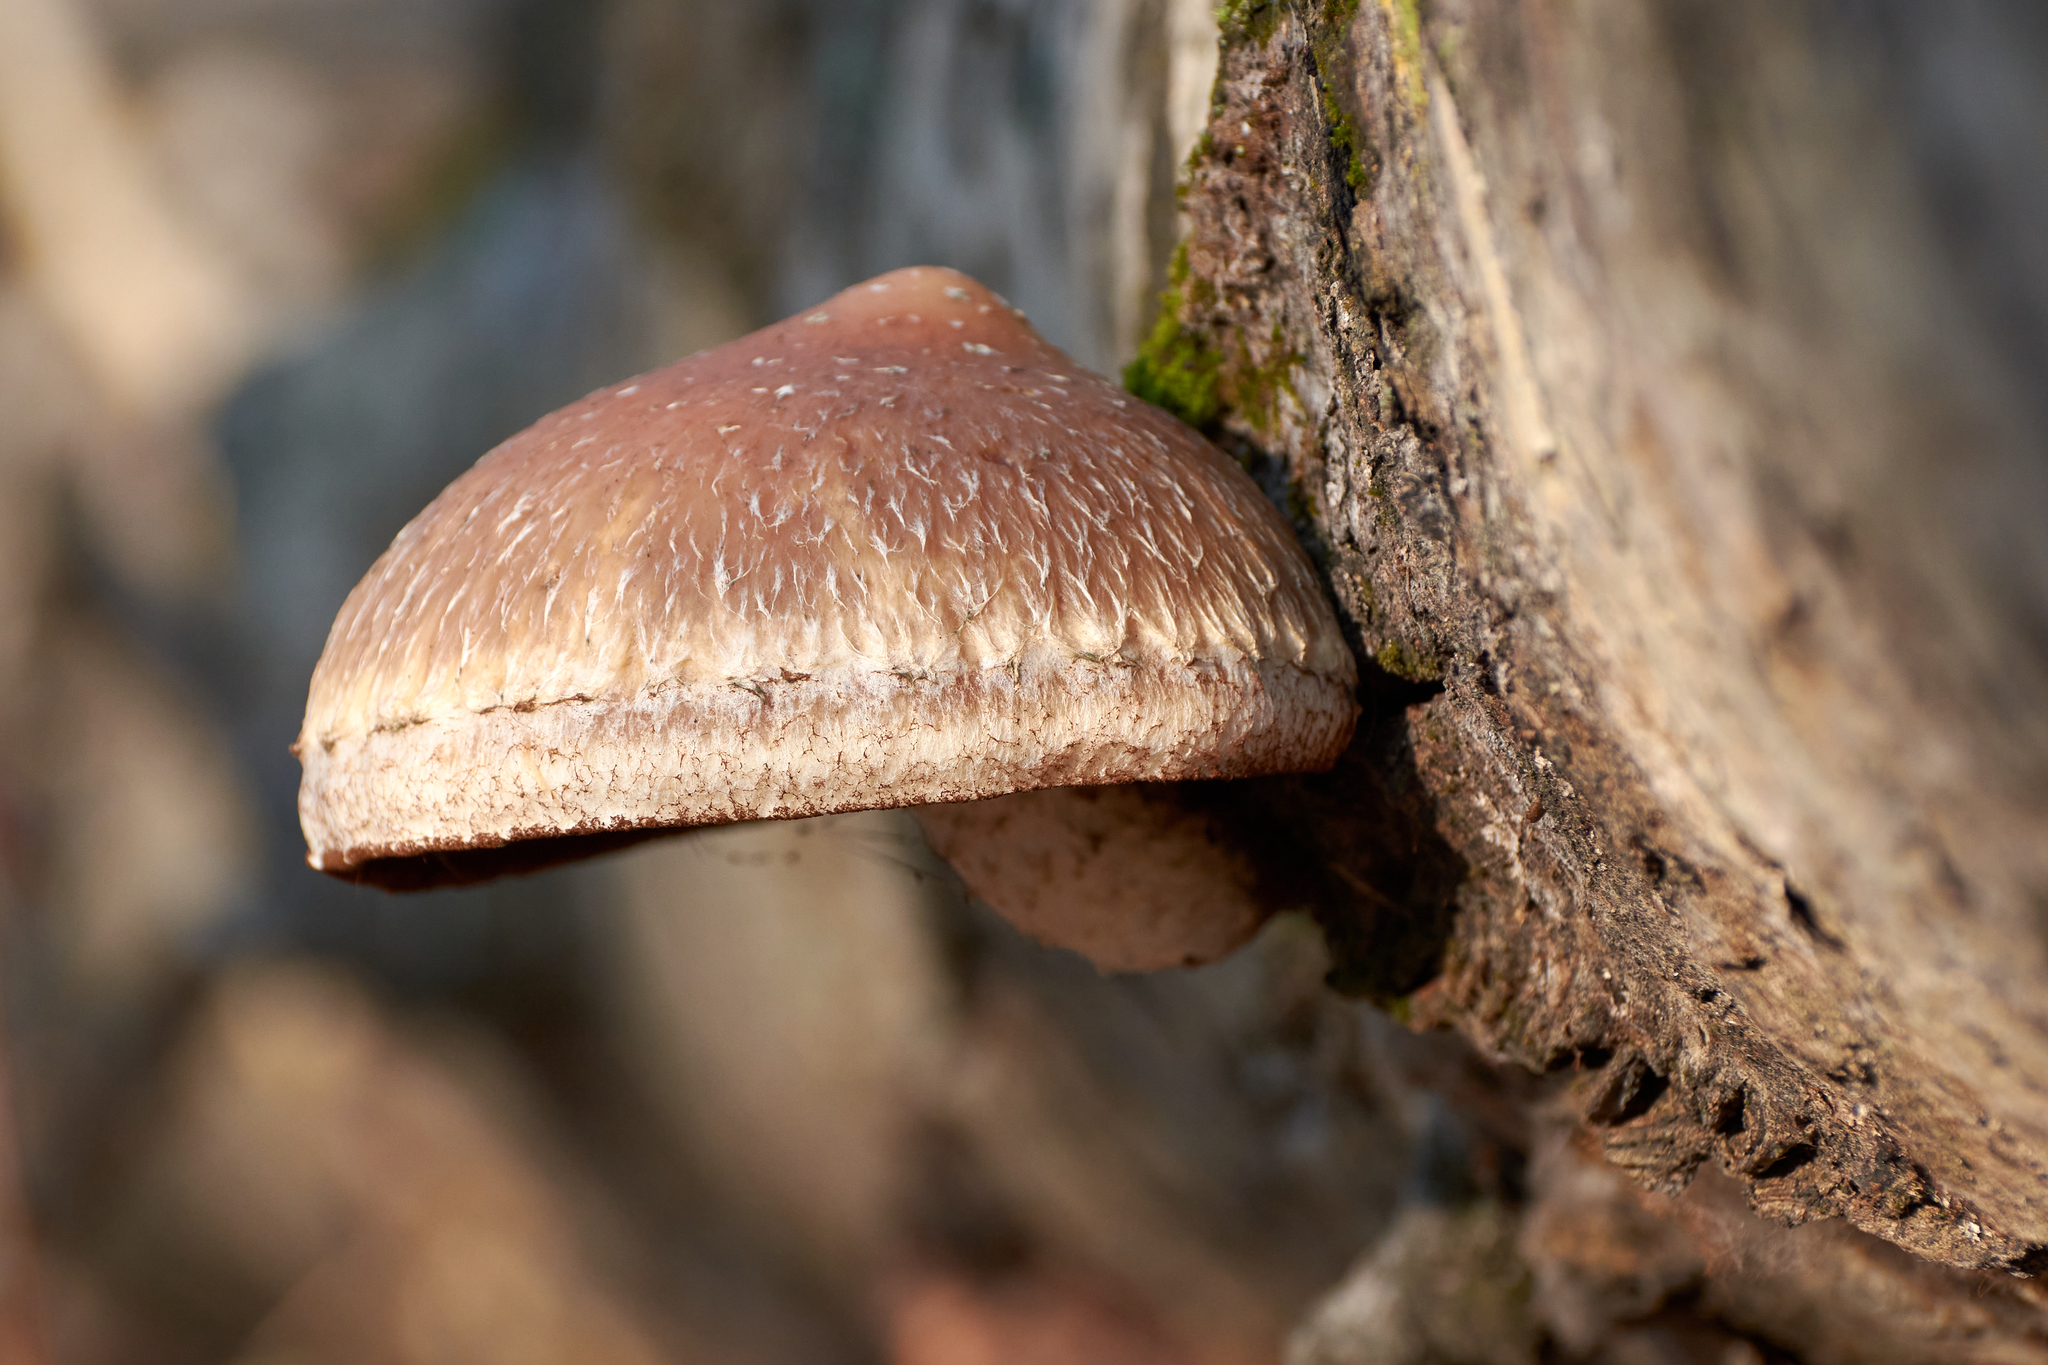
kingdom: Fungi
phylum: Basidiomycota
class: Agaricomycetes
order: Agaricales
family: Strophariaceae
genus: Pholiota
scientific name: Pholiota populnea
